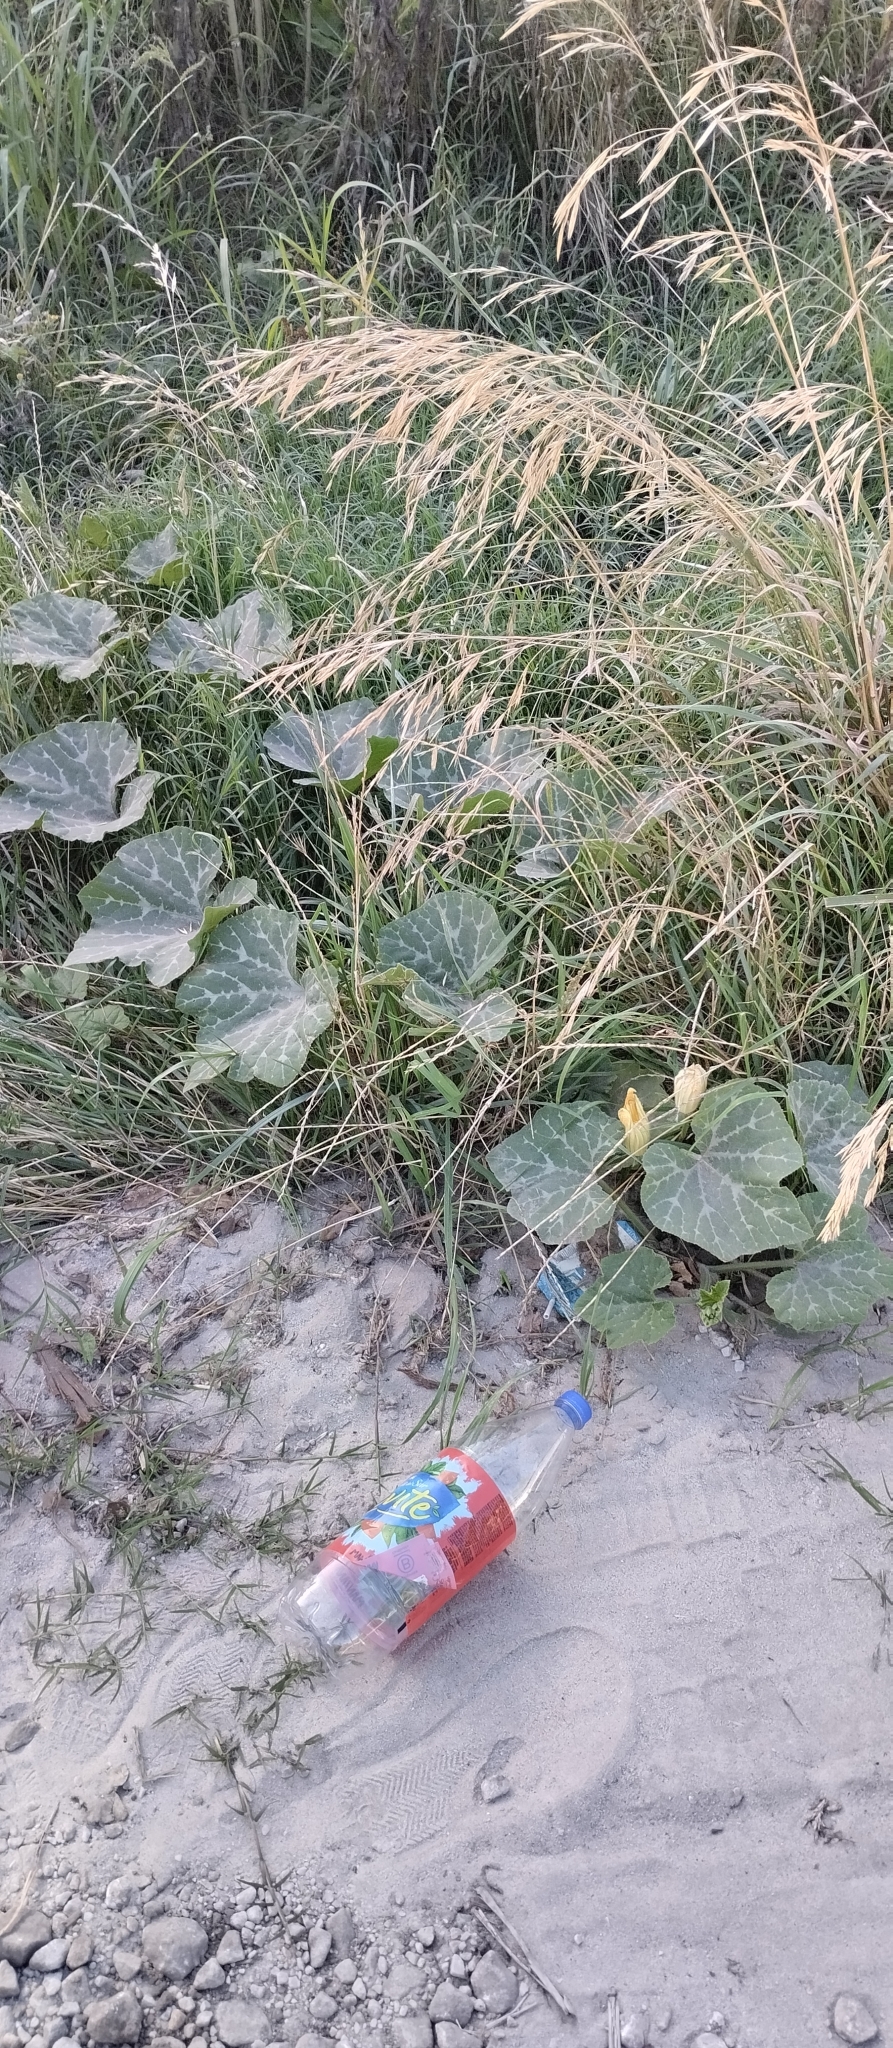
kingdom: Plantae
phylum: Tracheophyta
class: Magnoliopsida
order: Cucurbitales
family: Cucurbitaceae
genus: Cucurbita
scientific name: Cucurbita moschata
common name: Squash / pumpkin
